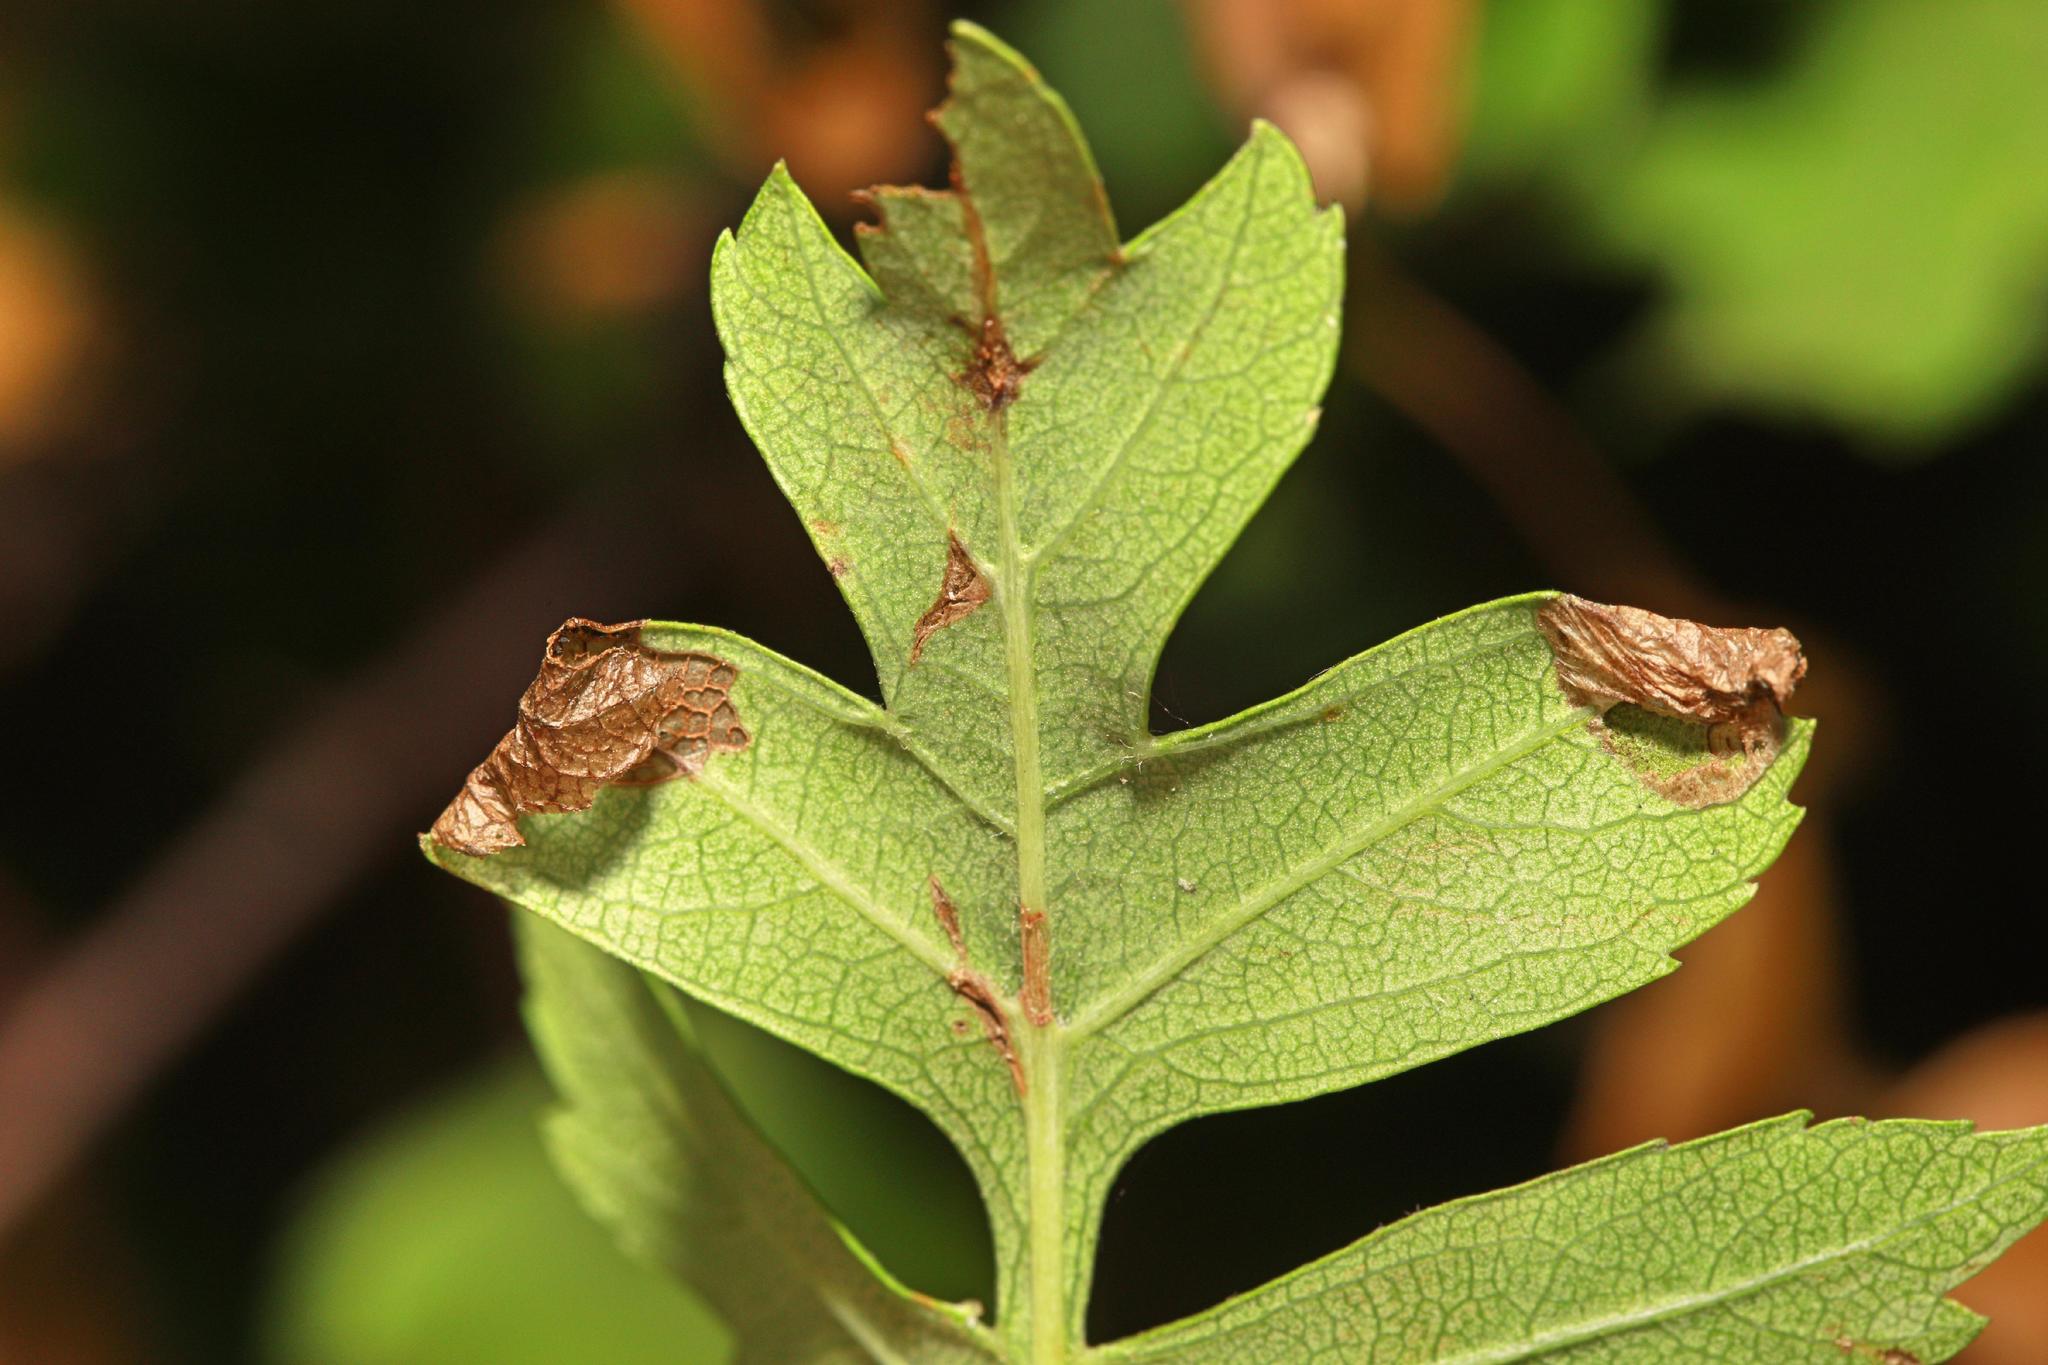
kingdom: Animalia
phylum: Arthropoda
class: Insecta
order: Lepidoptera
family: Gracillariidae
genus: Parornix
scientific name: Parornix anglicella
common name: Hawthorn slender
